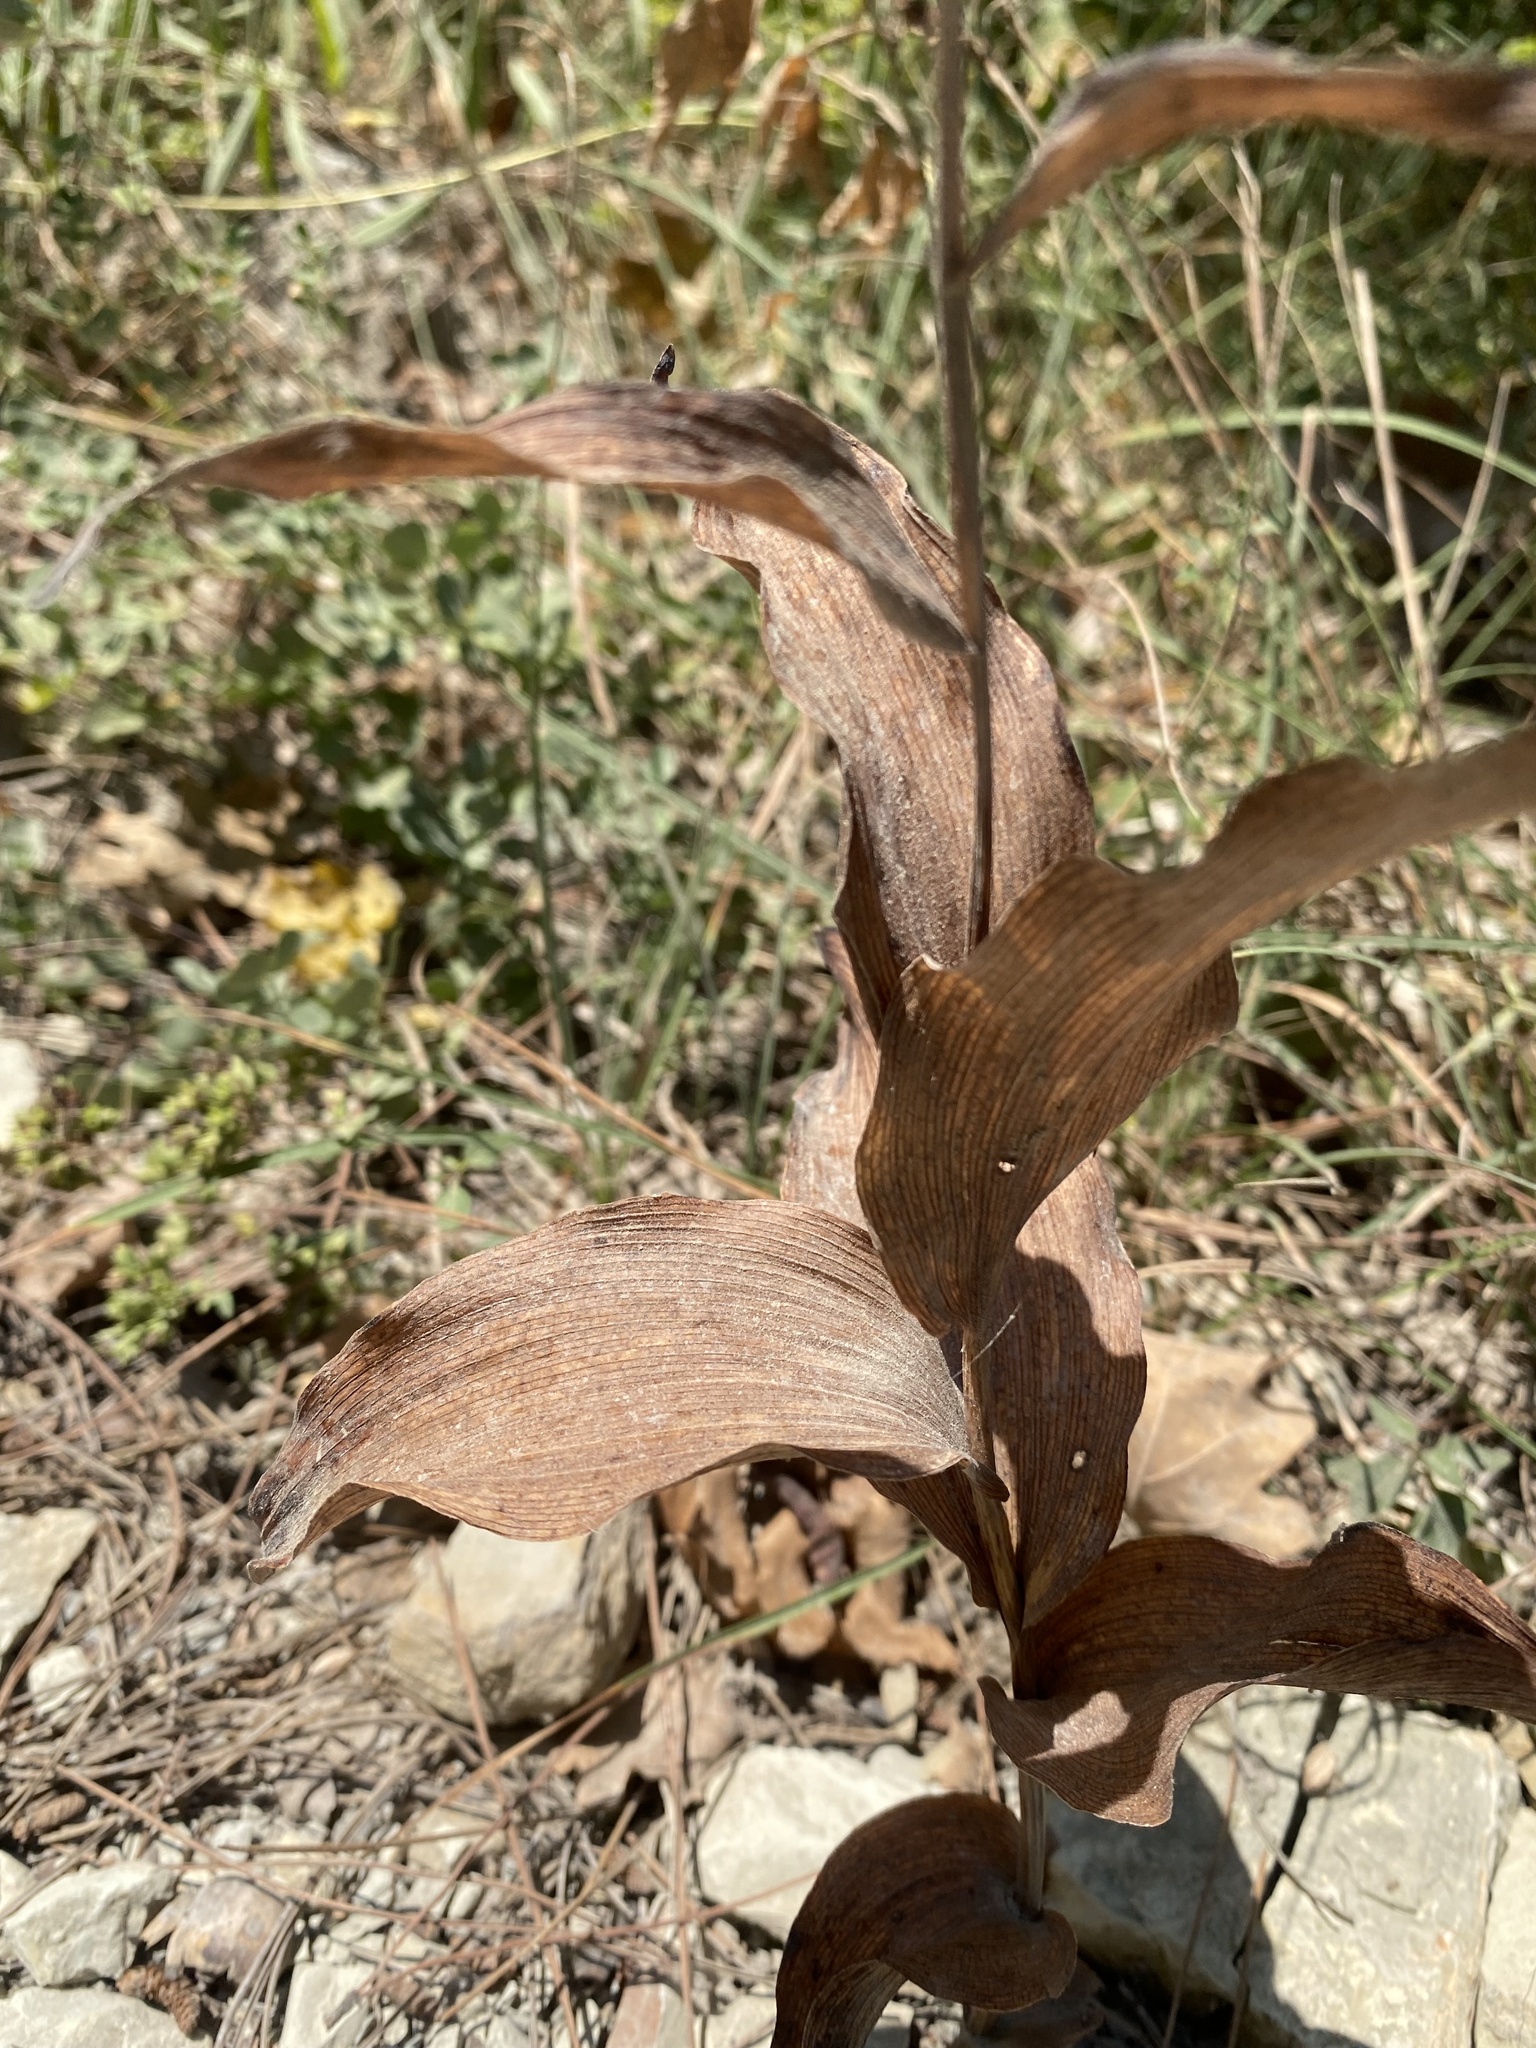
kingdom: Plantae
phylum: Tracheophyta
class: Liliopsida
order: Asparagales
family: Orchidaceae
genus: Epipactis
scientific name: Epipactis helleborine
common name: Broad-leaved helleborine
